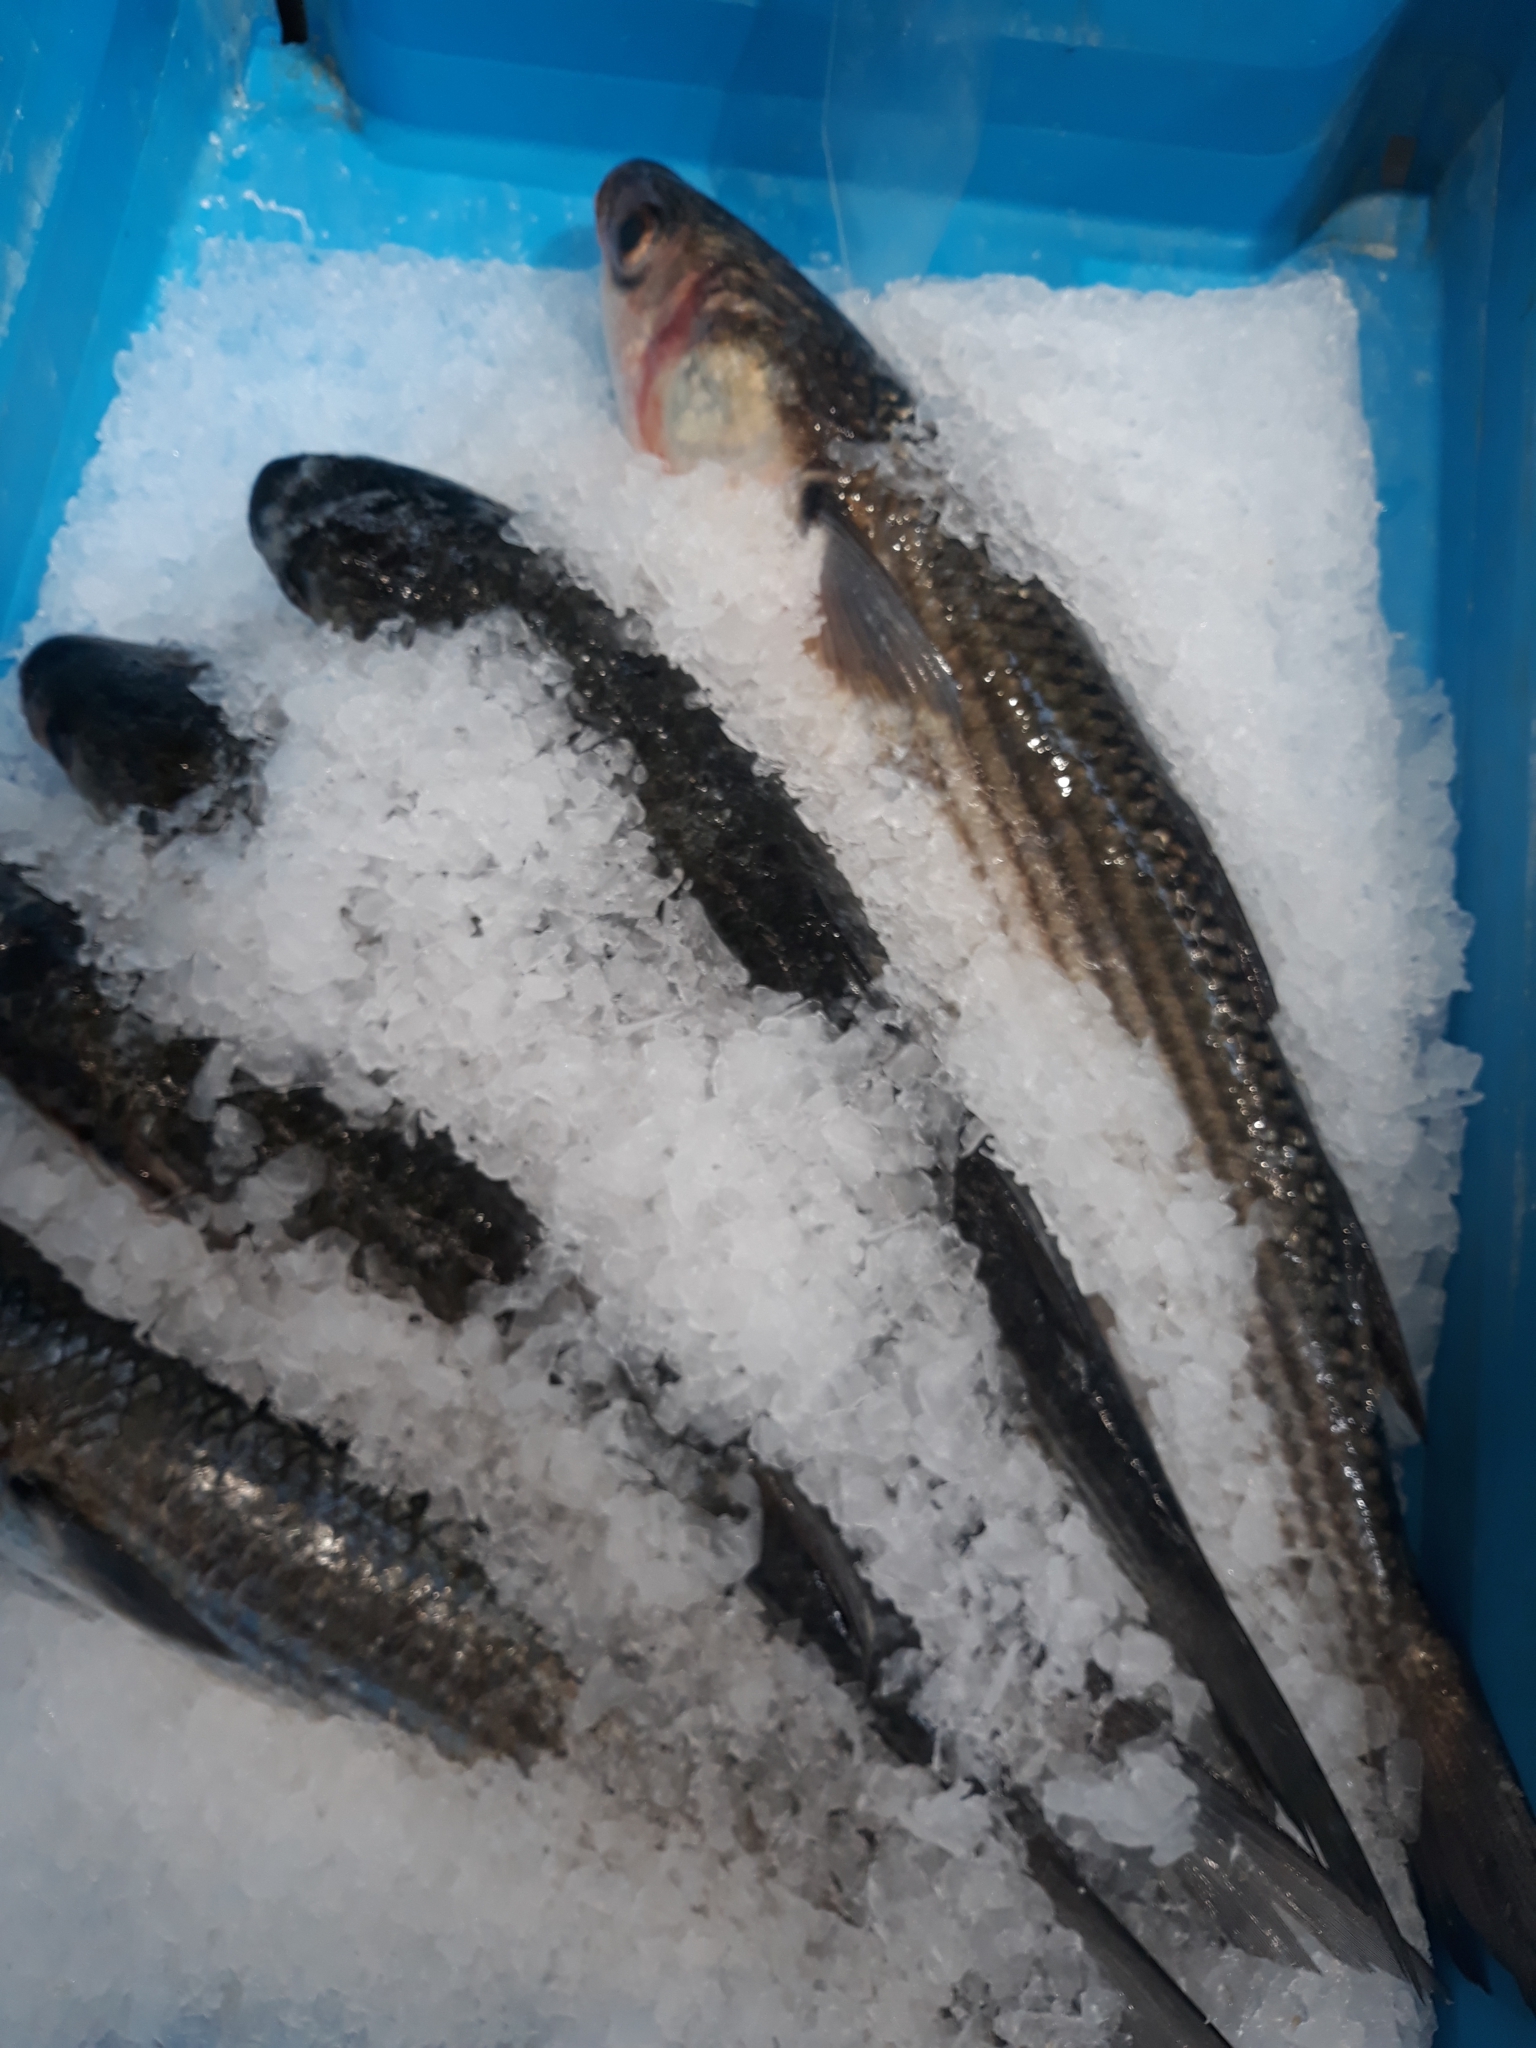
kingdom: Animalia
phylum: Chordata
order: Mugiliformes
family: Mugilidae
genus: Chelon
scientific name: Chelon ramada
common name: Thinlip grey mullet
